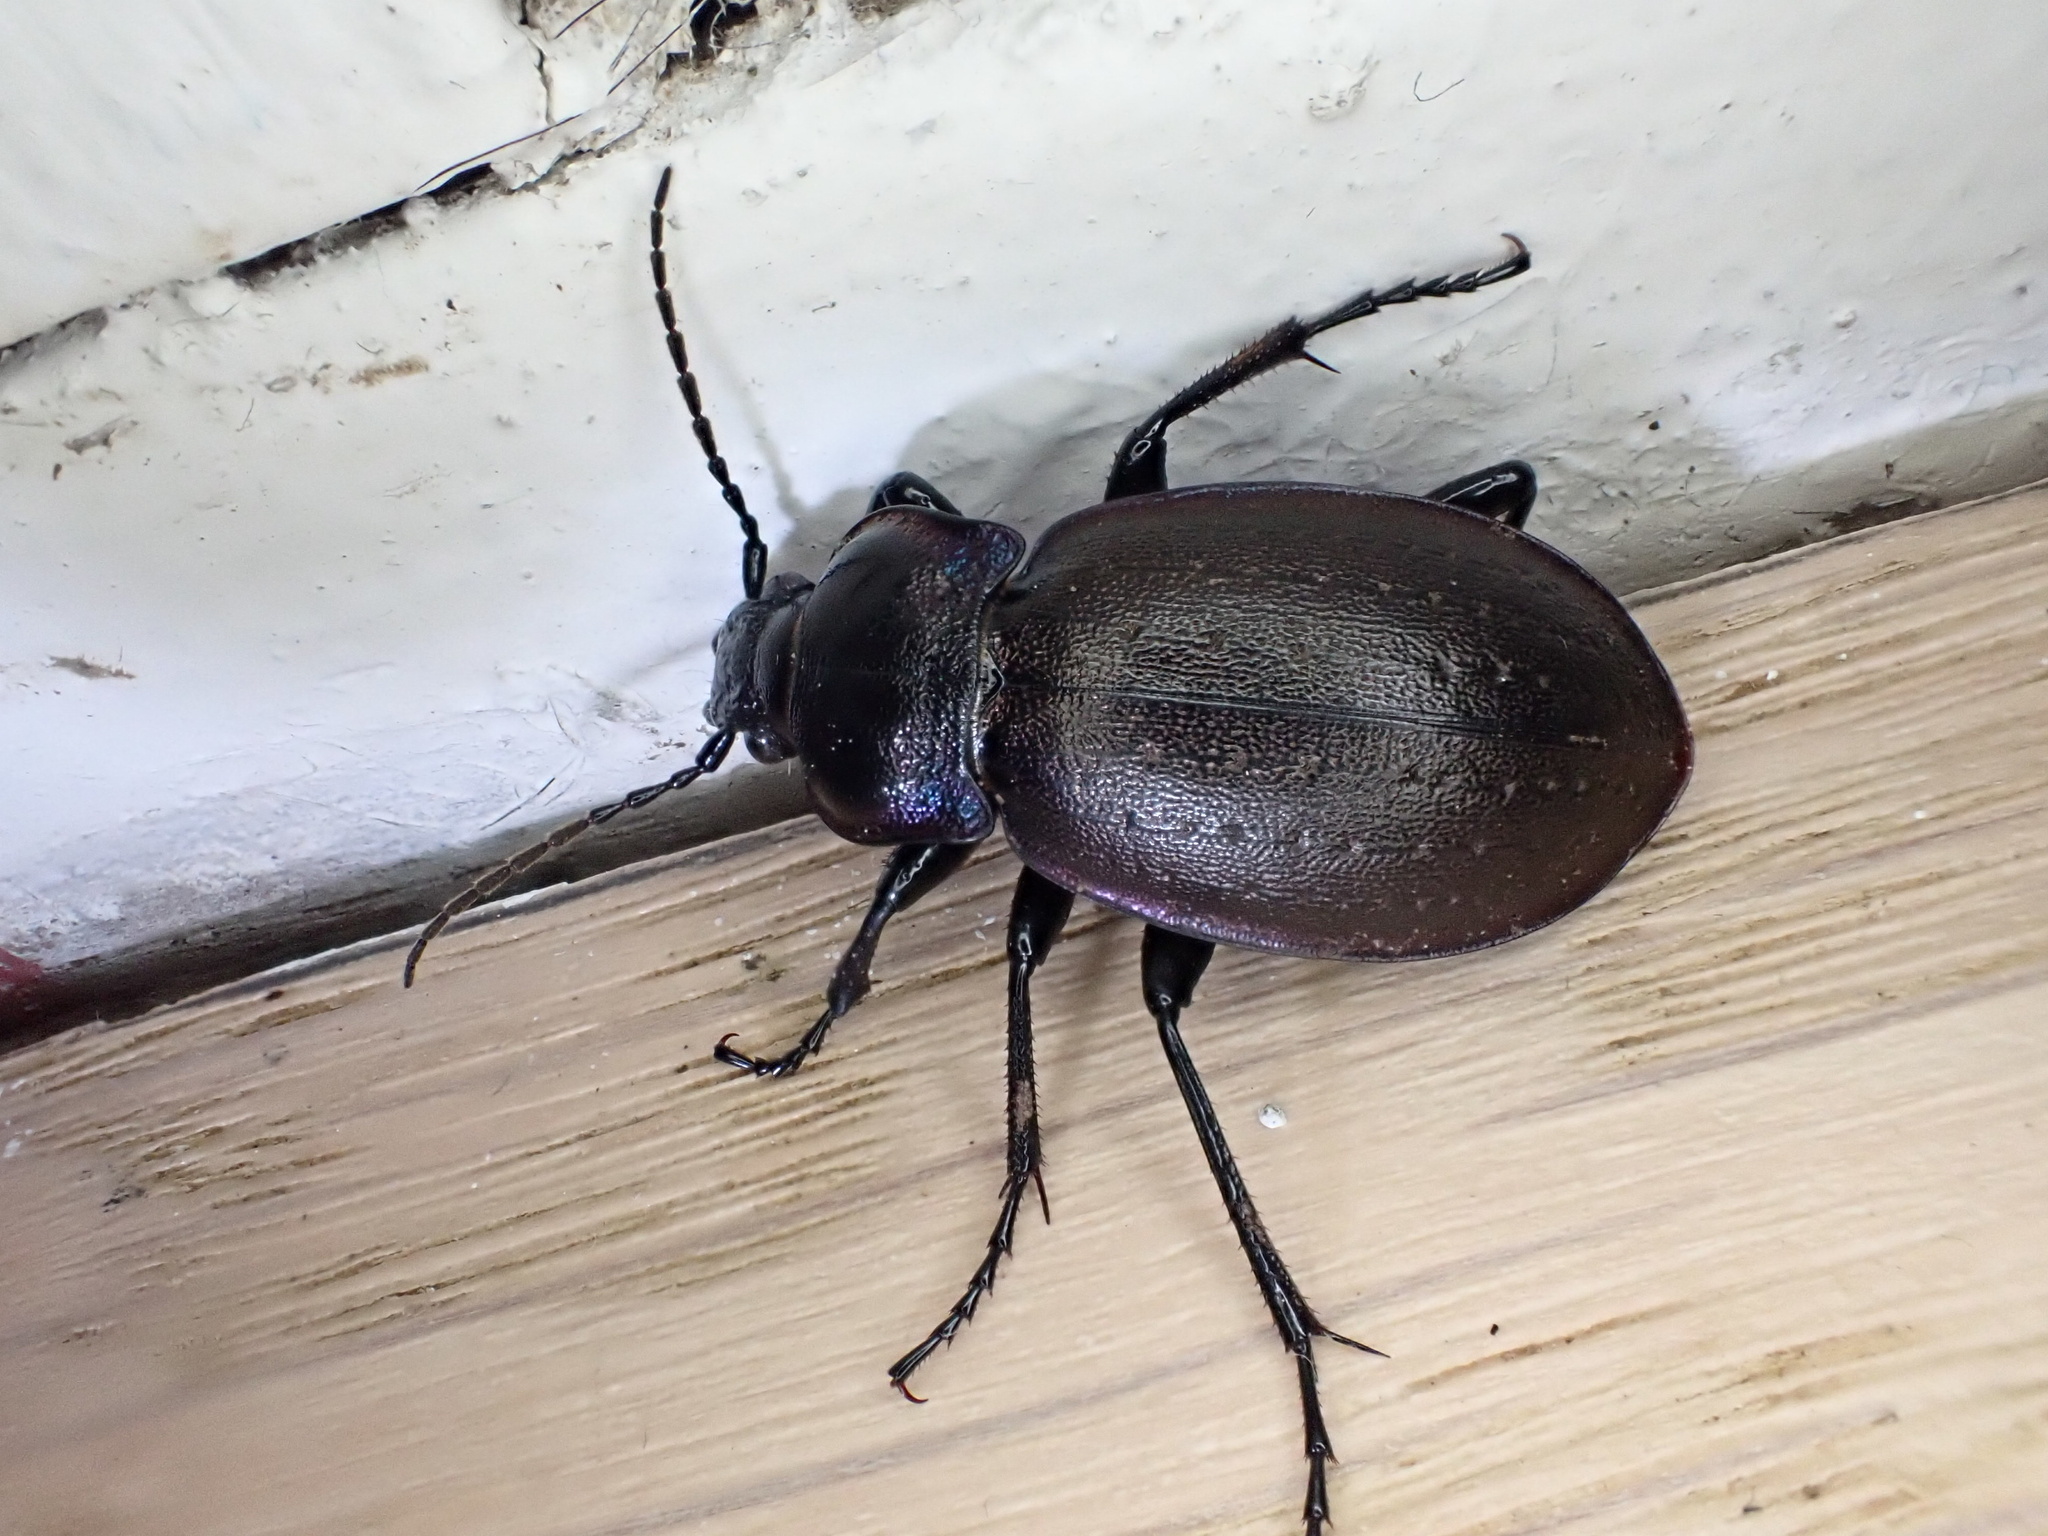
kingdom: Animalia
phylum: Arthropoda
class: Insecta
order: Coleoptera
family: Carabidae
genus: Carabus
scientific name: Carabus nemoralis
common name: European ground beetle
